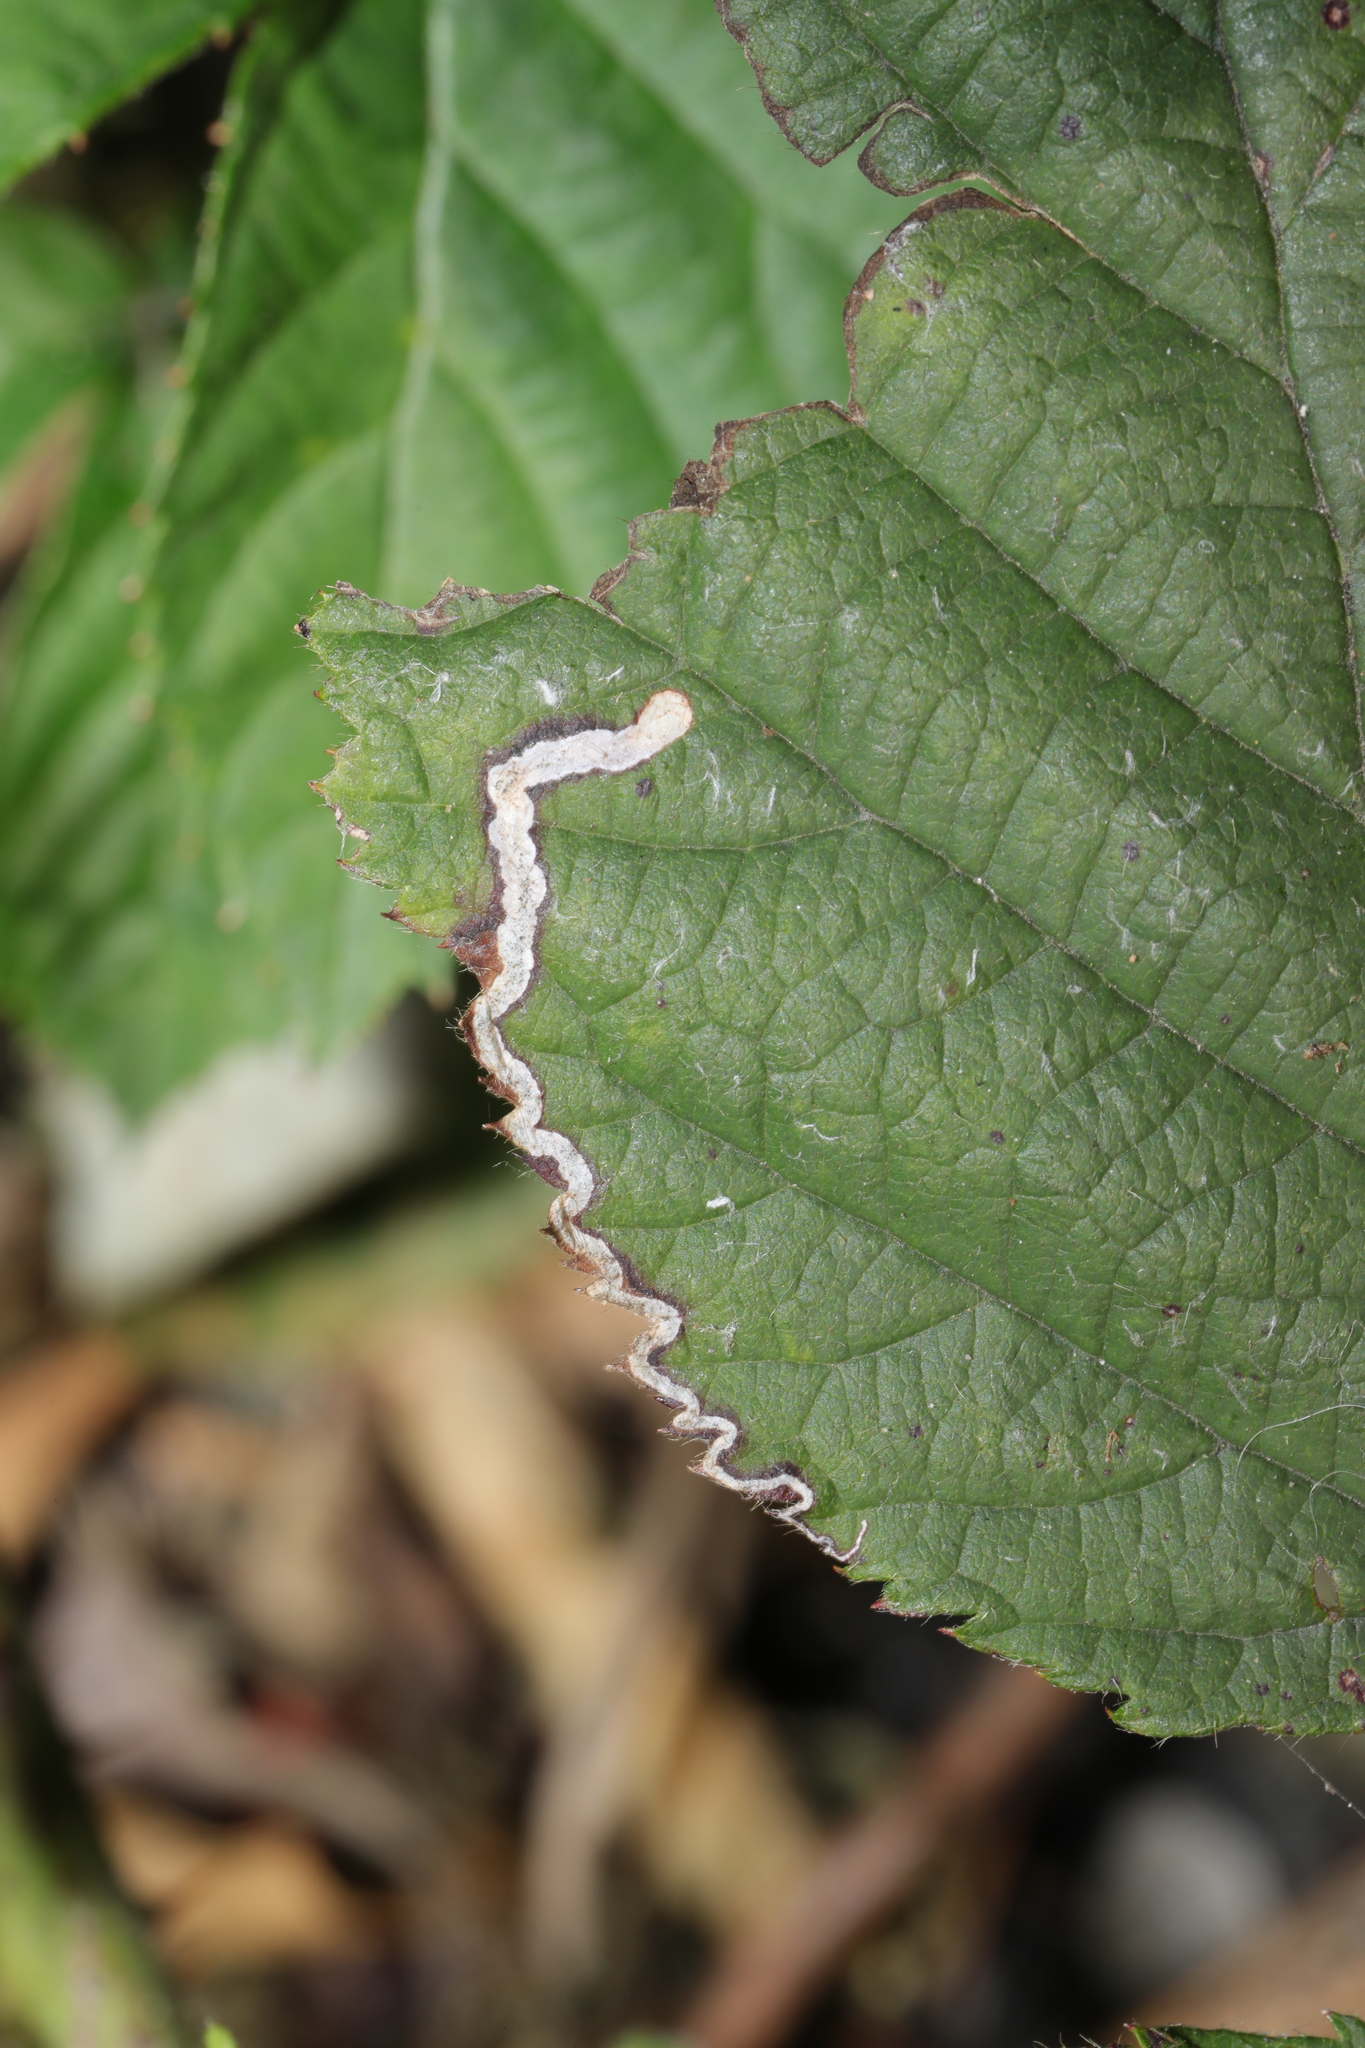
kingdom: Animalia
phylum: Arthropoda
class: Insecta
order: Lepidoptera
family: Nepticulidae
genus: Stigmella
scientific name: Stigmella aurella
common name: Golden pigmy
